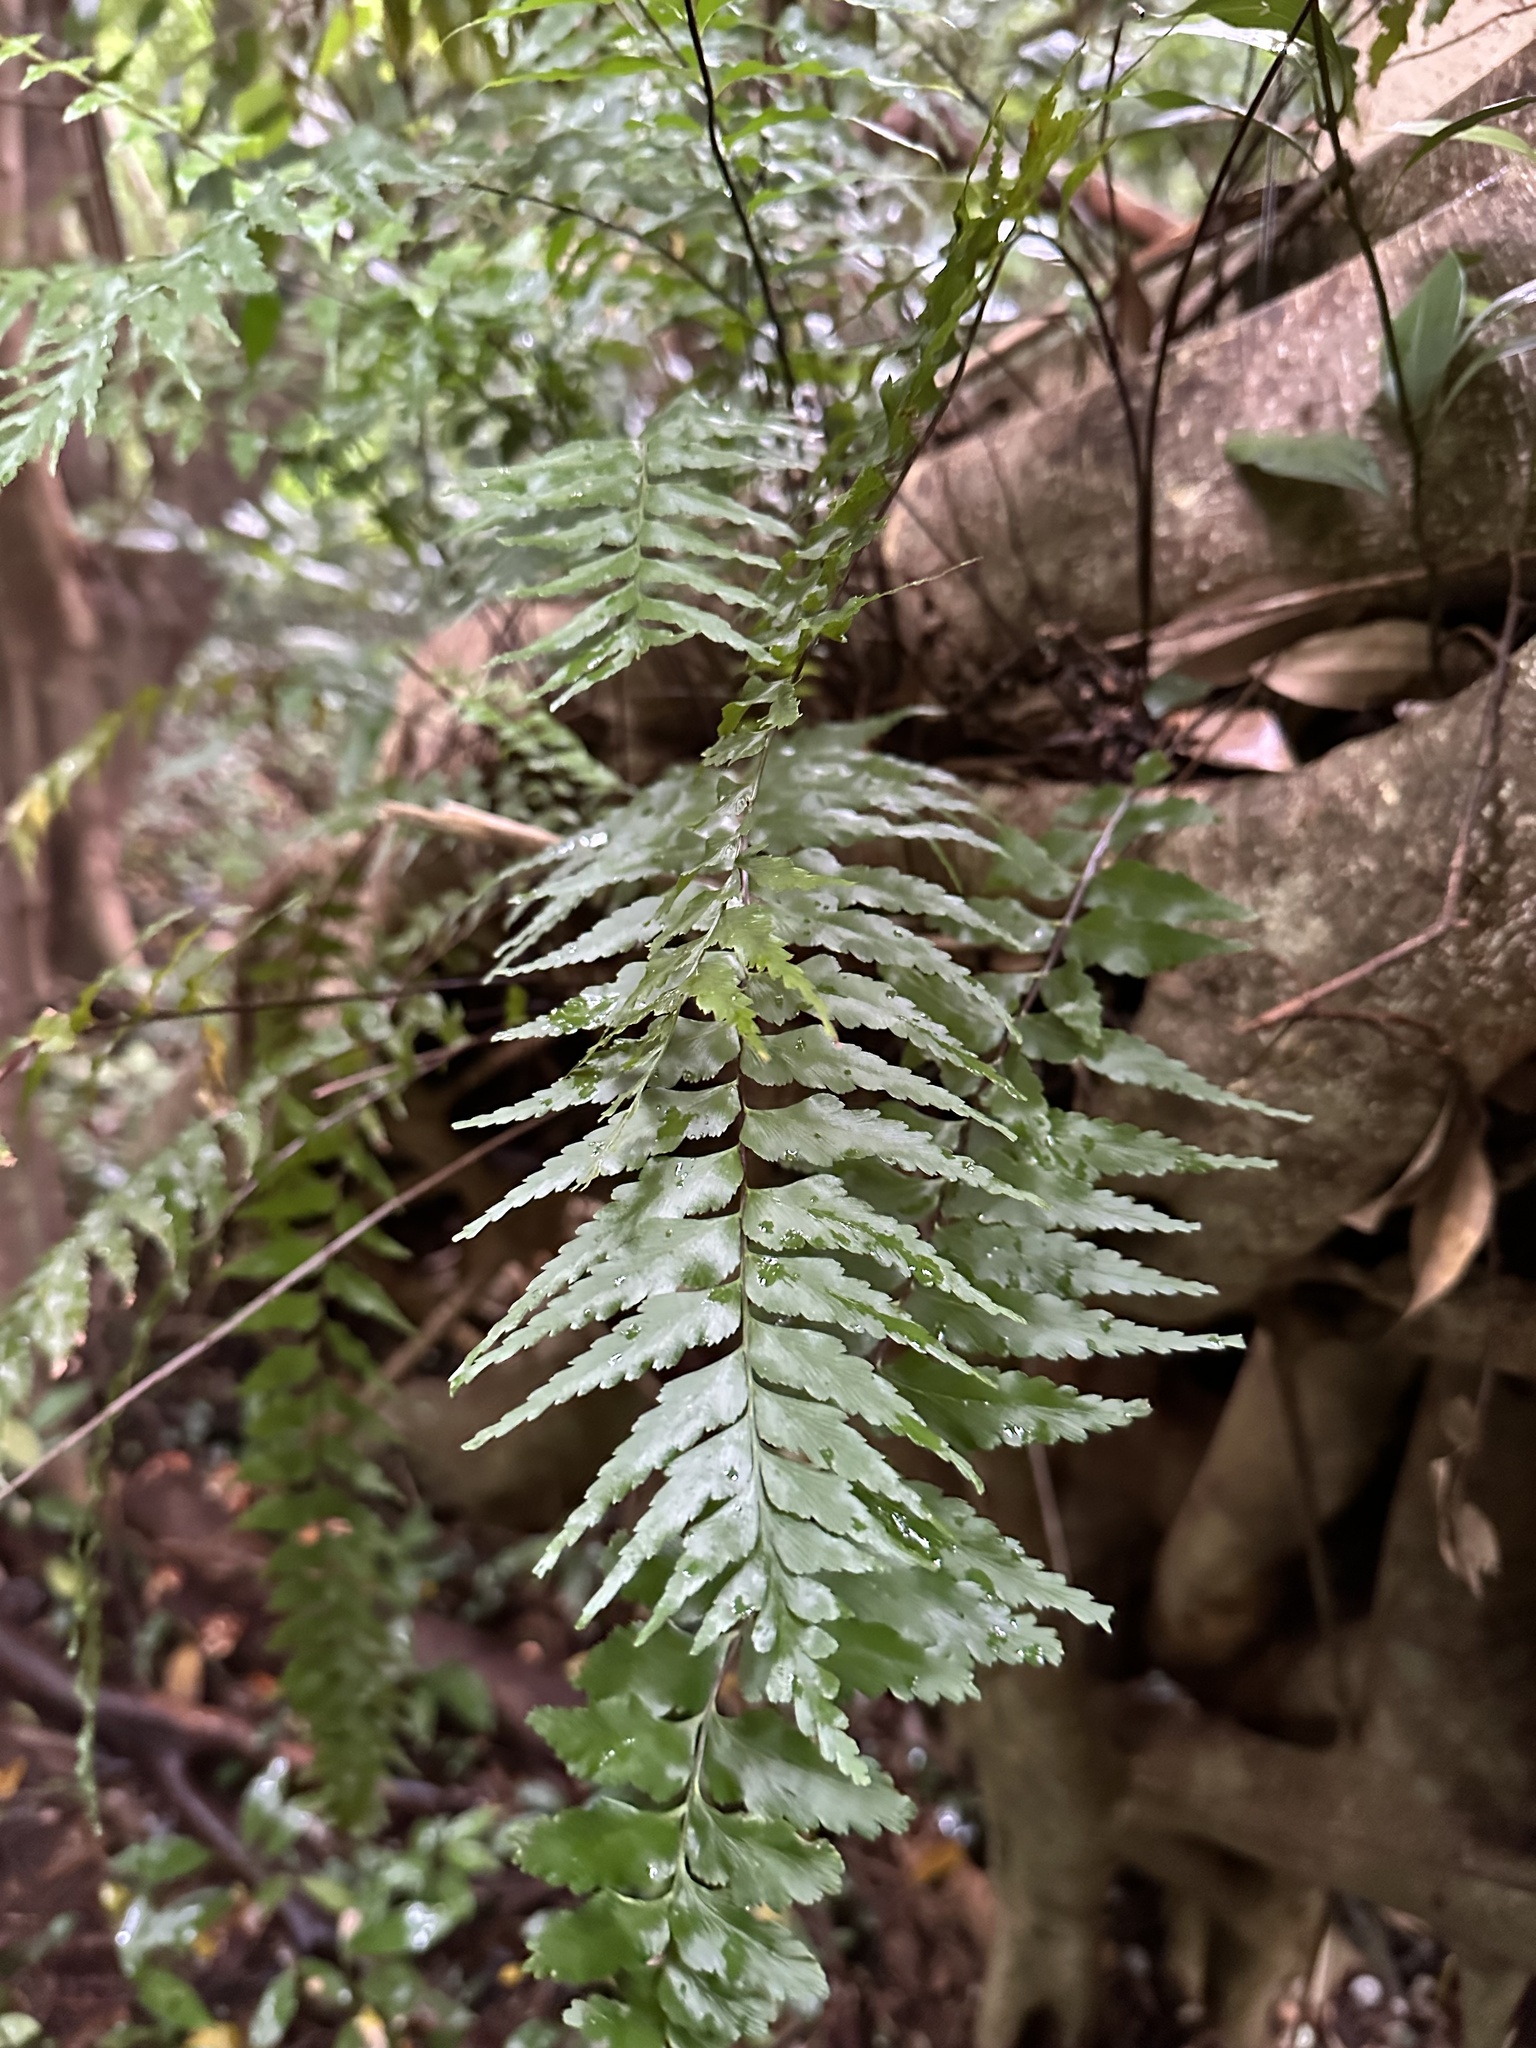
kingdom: Plantae
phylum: Tracheophyta
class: Polypodiopsida
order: Polypodiales
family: Aspleniaceae
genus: Asplenium
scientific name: Asplenium contiguum
